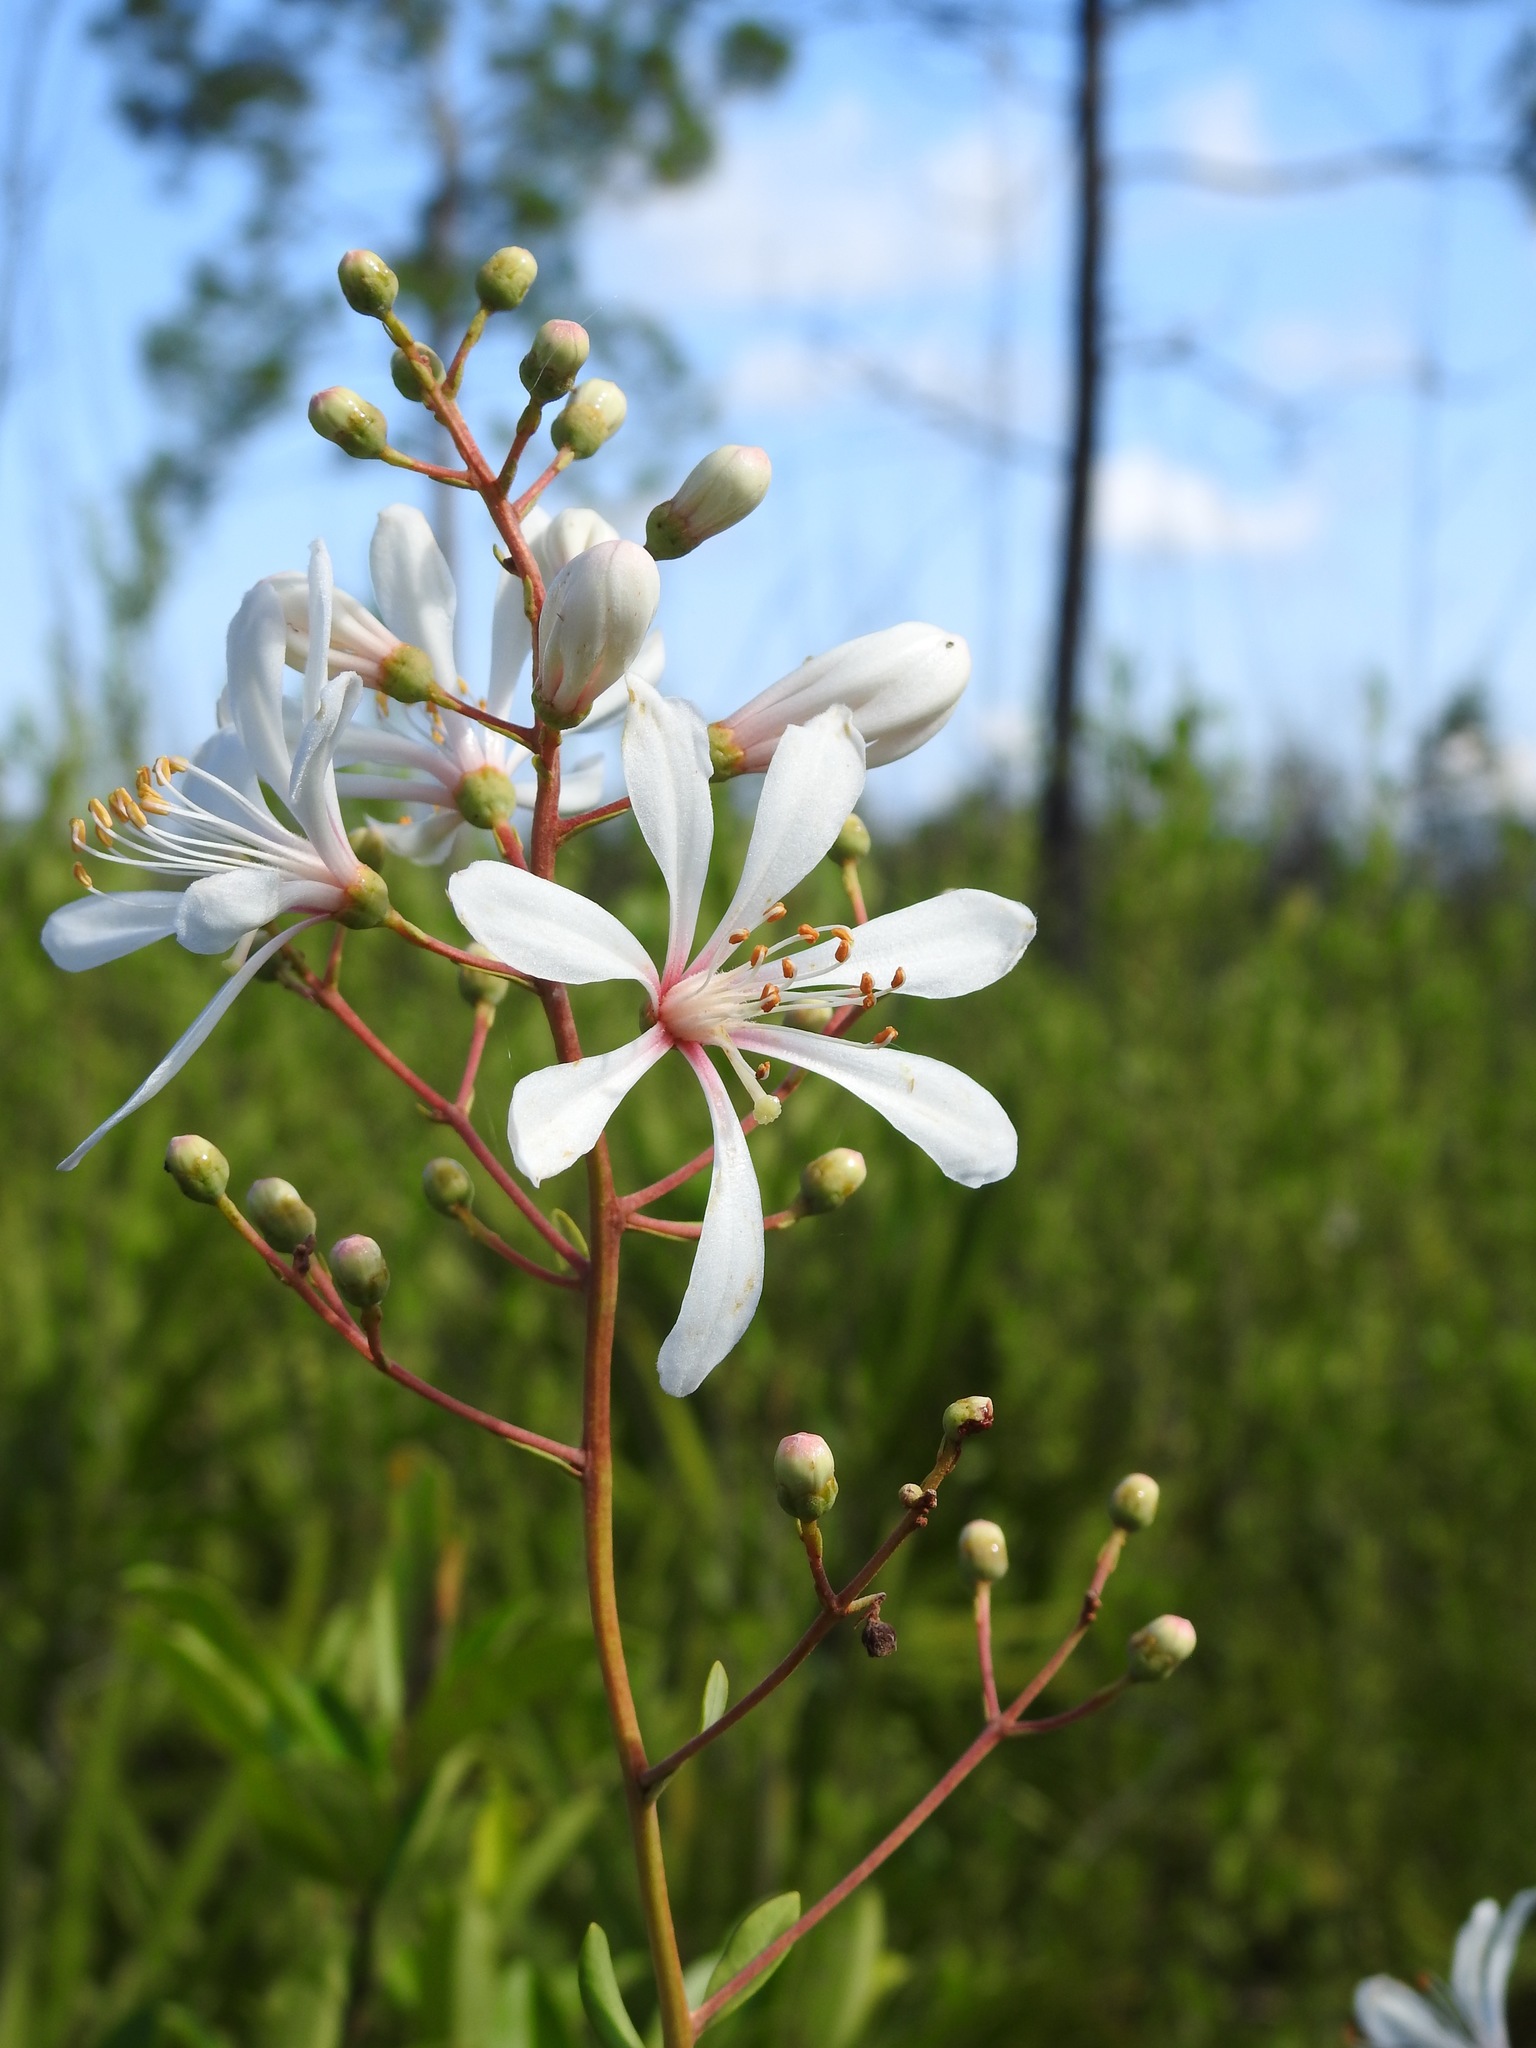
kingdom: Plantae
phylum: Tracheophyta
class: Magnoliopsida
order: Ericales
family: Ericaceae
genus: Bejaria
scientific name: Bejaria racemosa
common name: Tarflower
